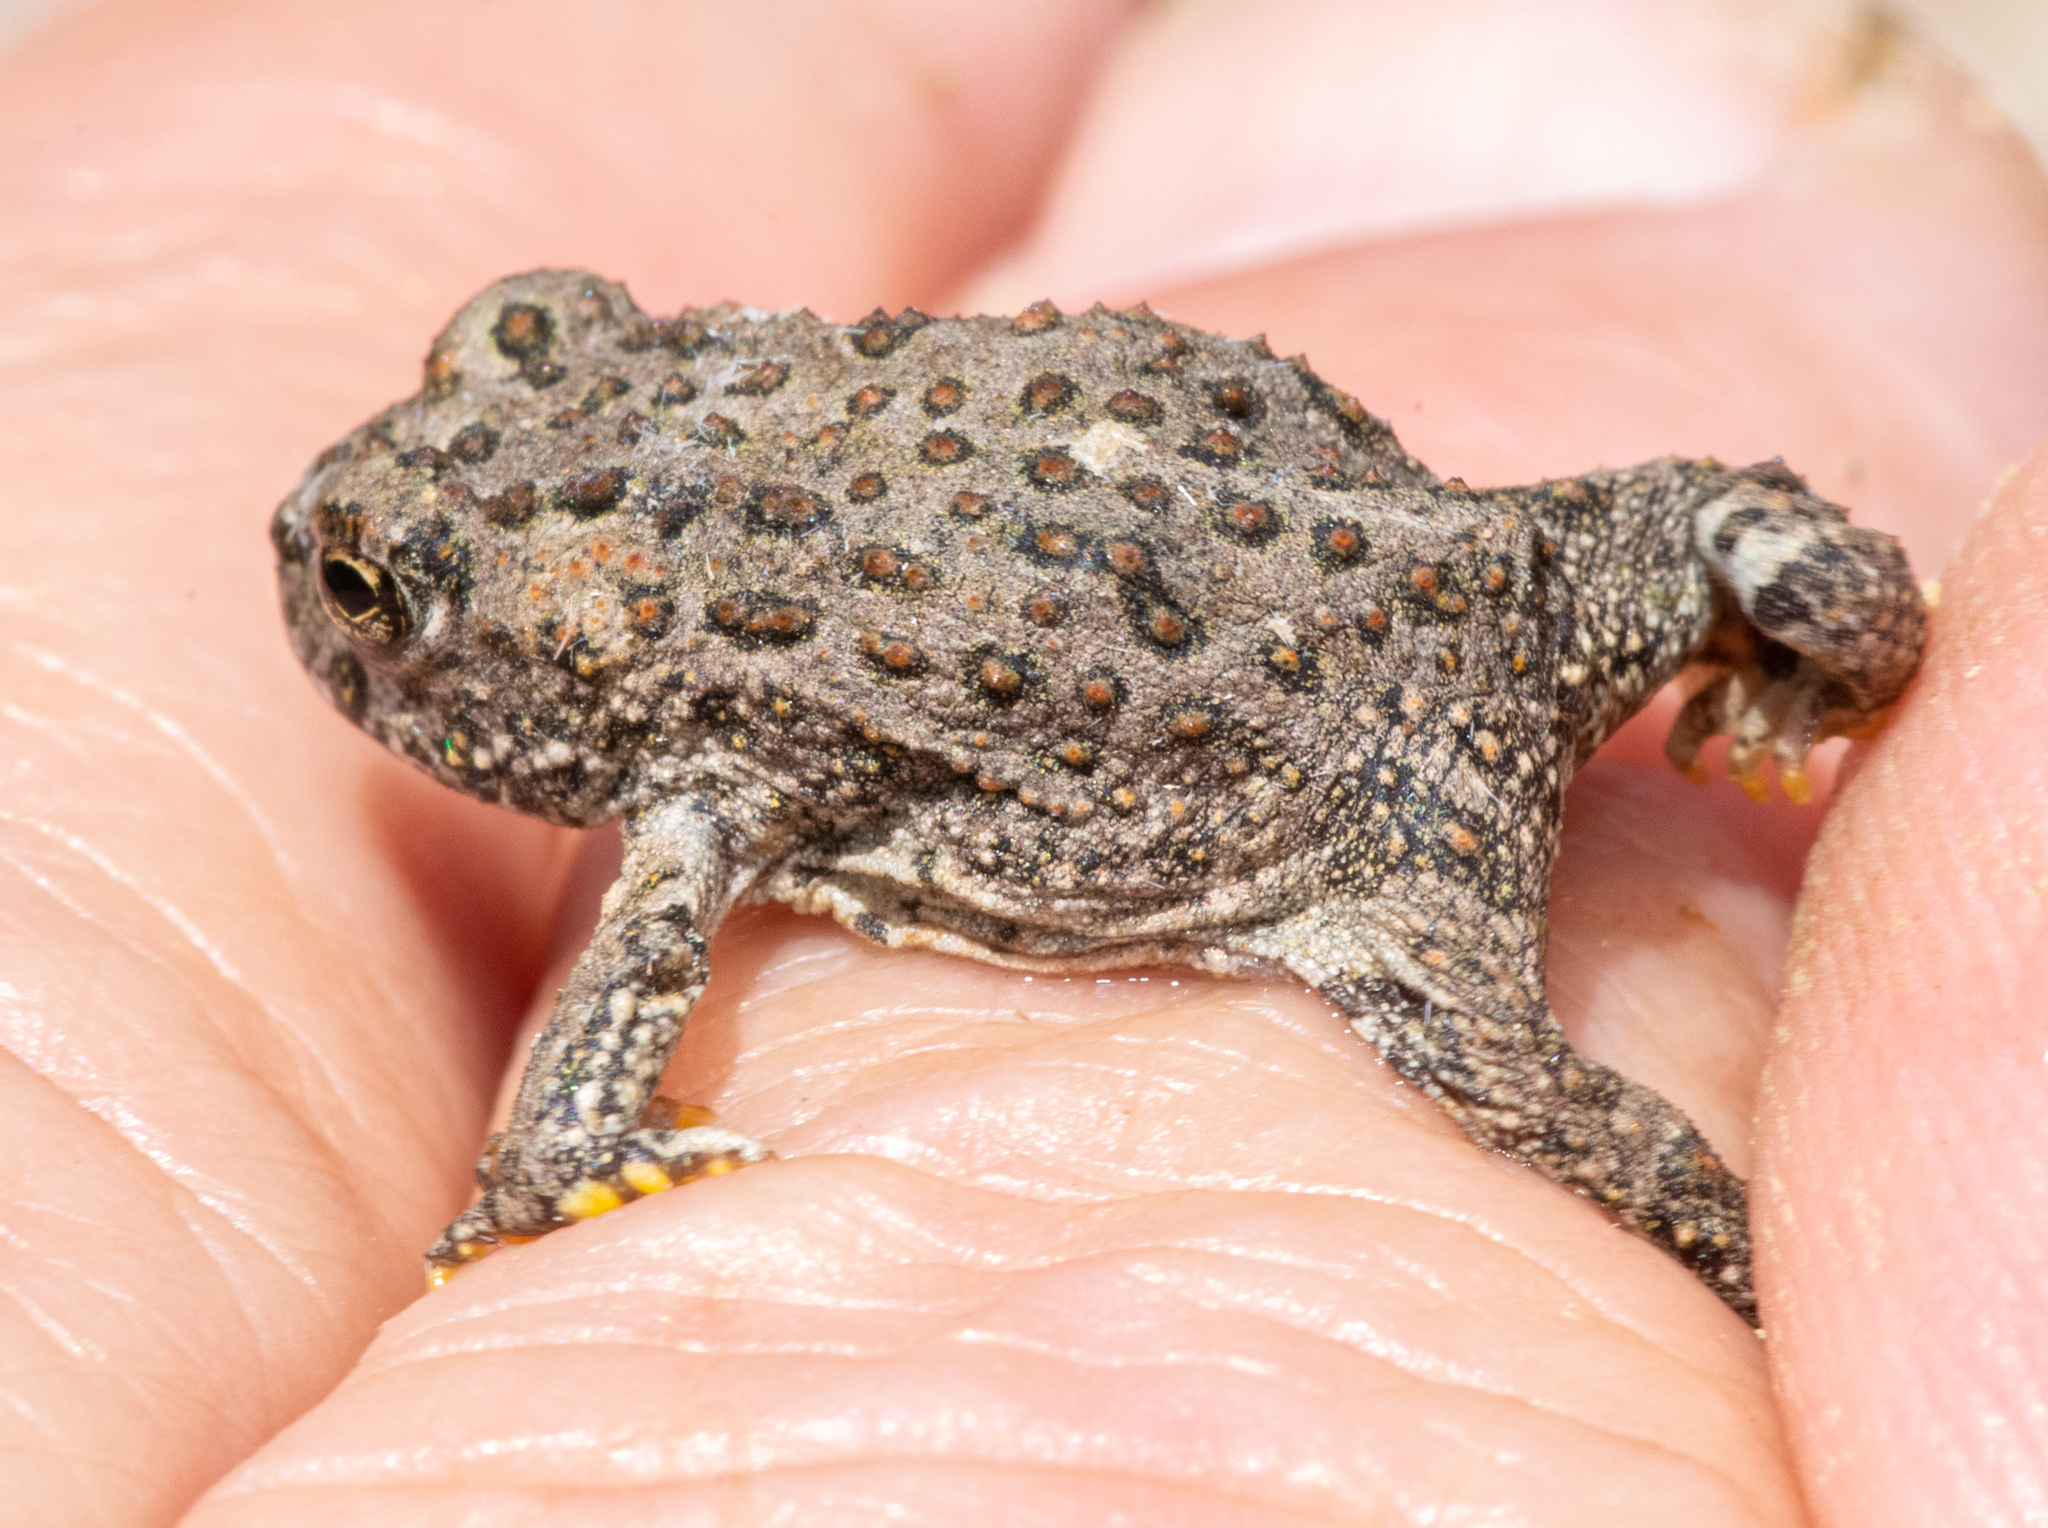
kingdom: Animalia
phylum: Chordata
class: Amphibia
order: Anura
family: Bufonidae
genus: Anaxyrus
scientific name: Anaxyrus boreas
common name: Western toad
